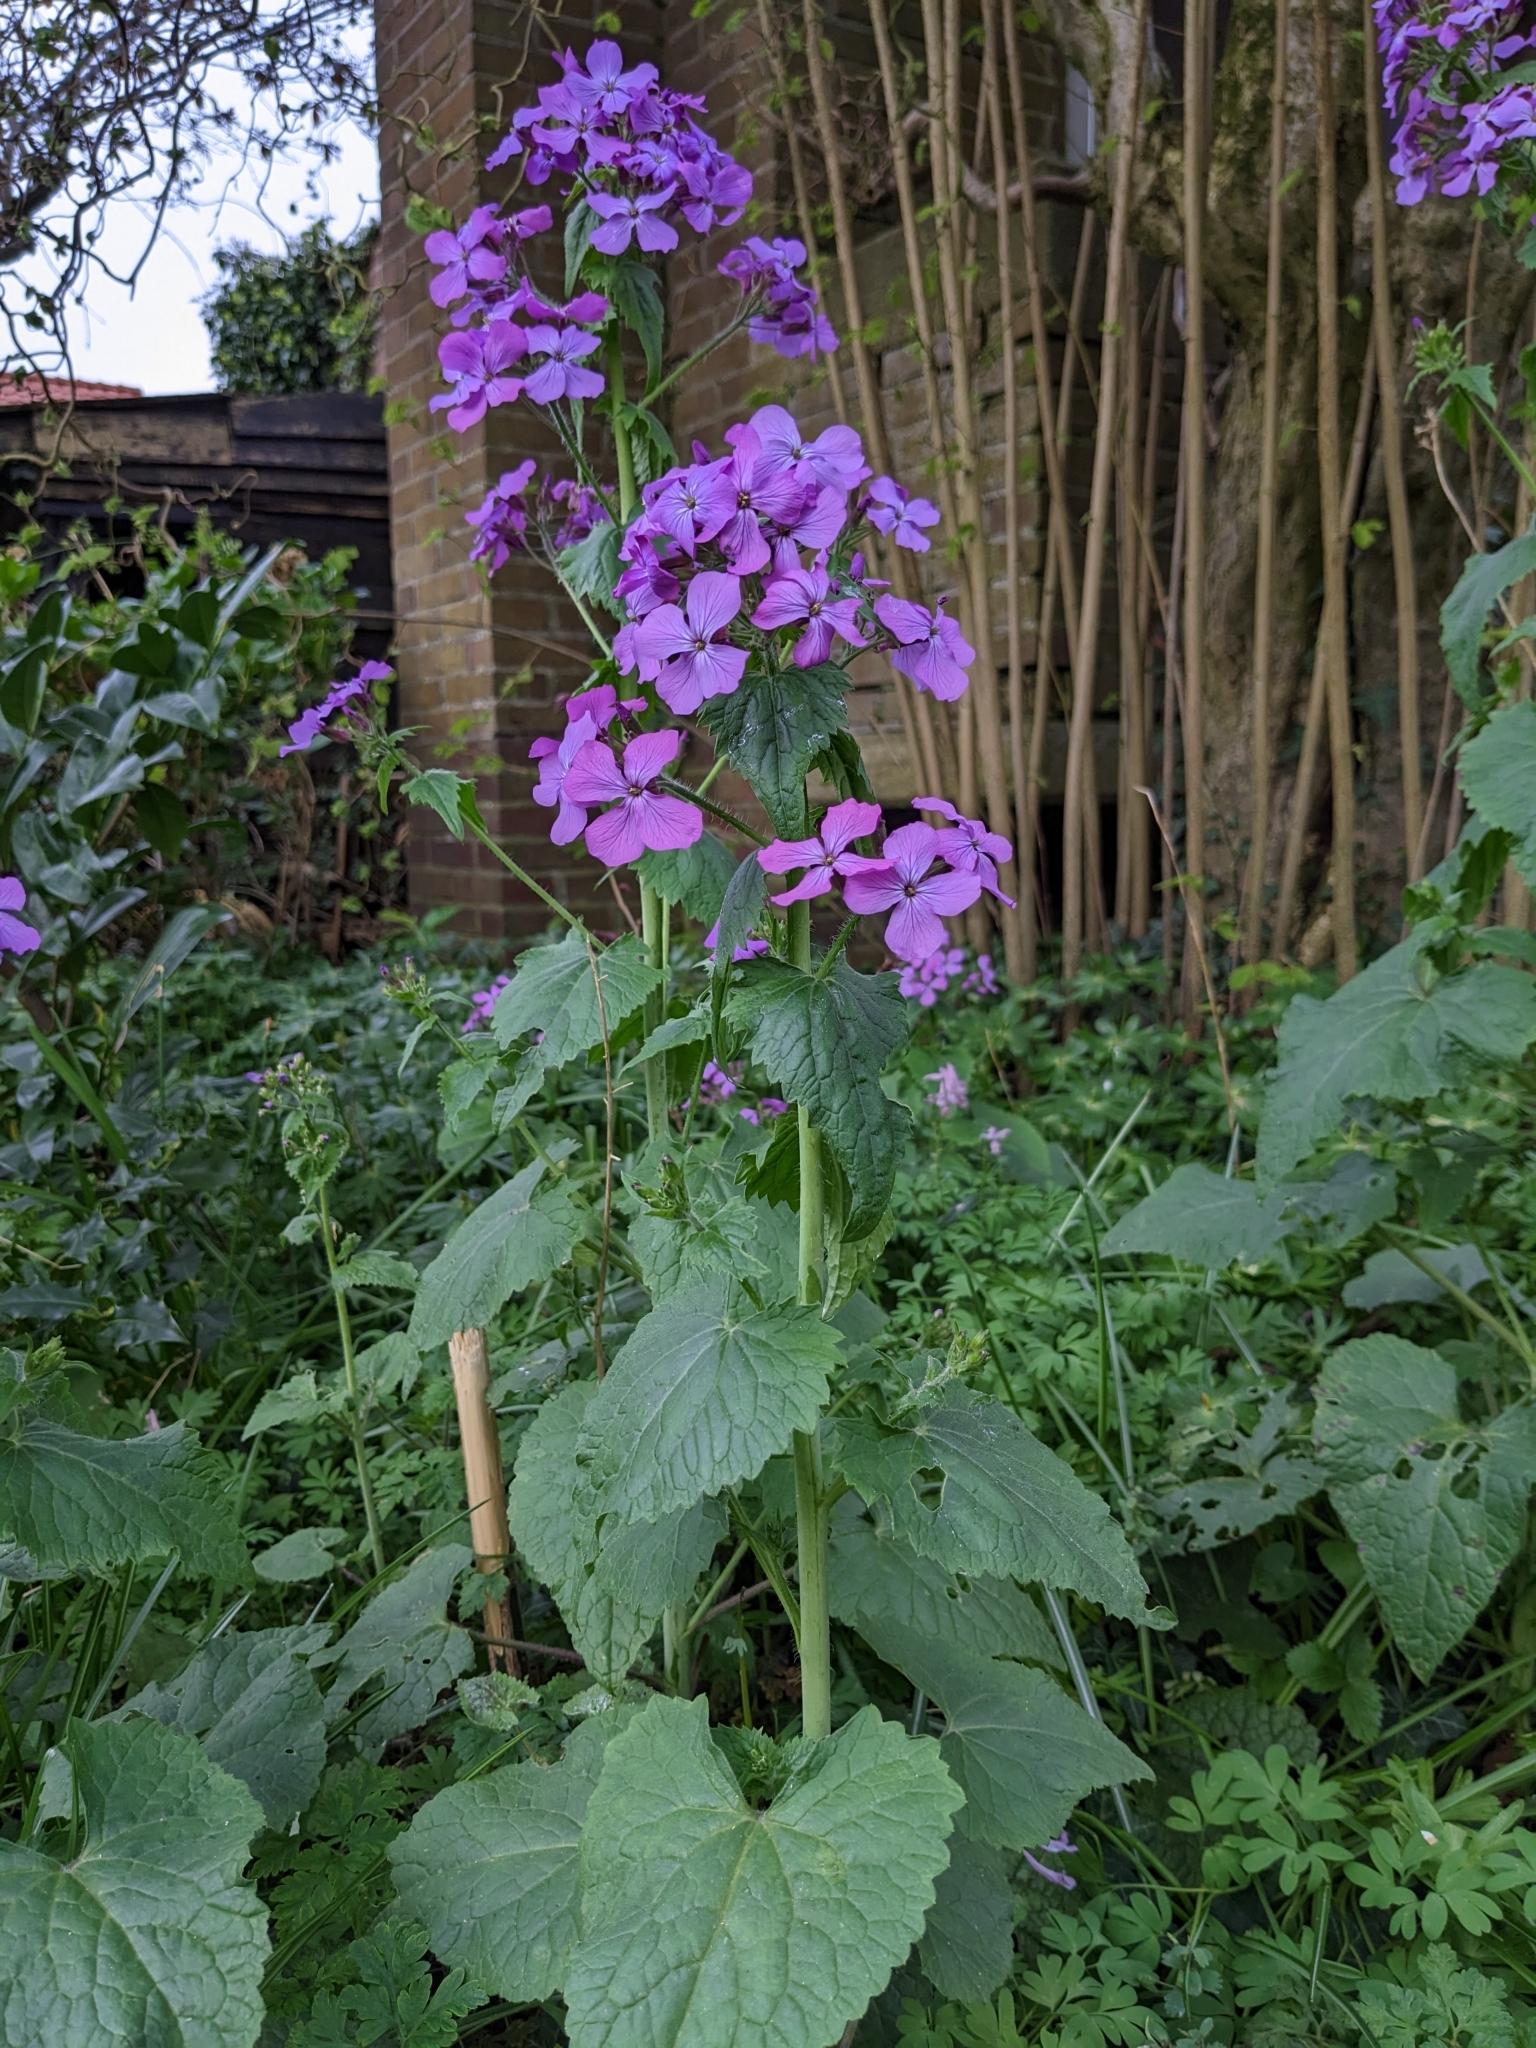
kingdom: Plantae
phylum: Tracheophyta
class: Magnoliopsida
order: Brassicales
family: Brassicaceae
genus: Lunaria
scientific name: Lunaria annua
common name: Honesty
